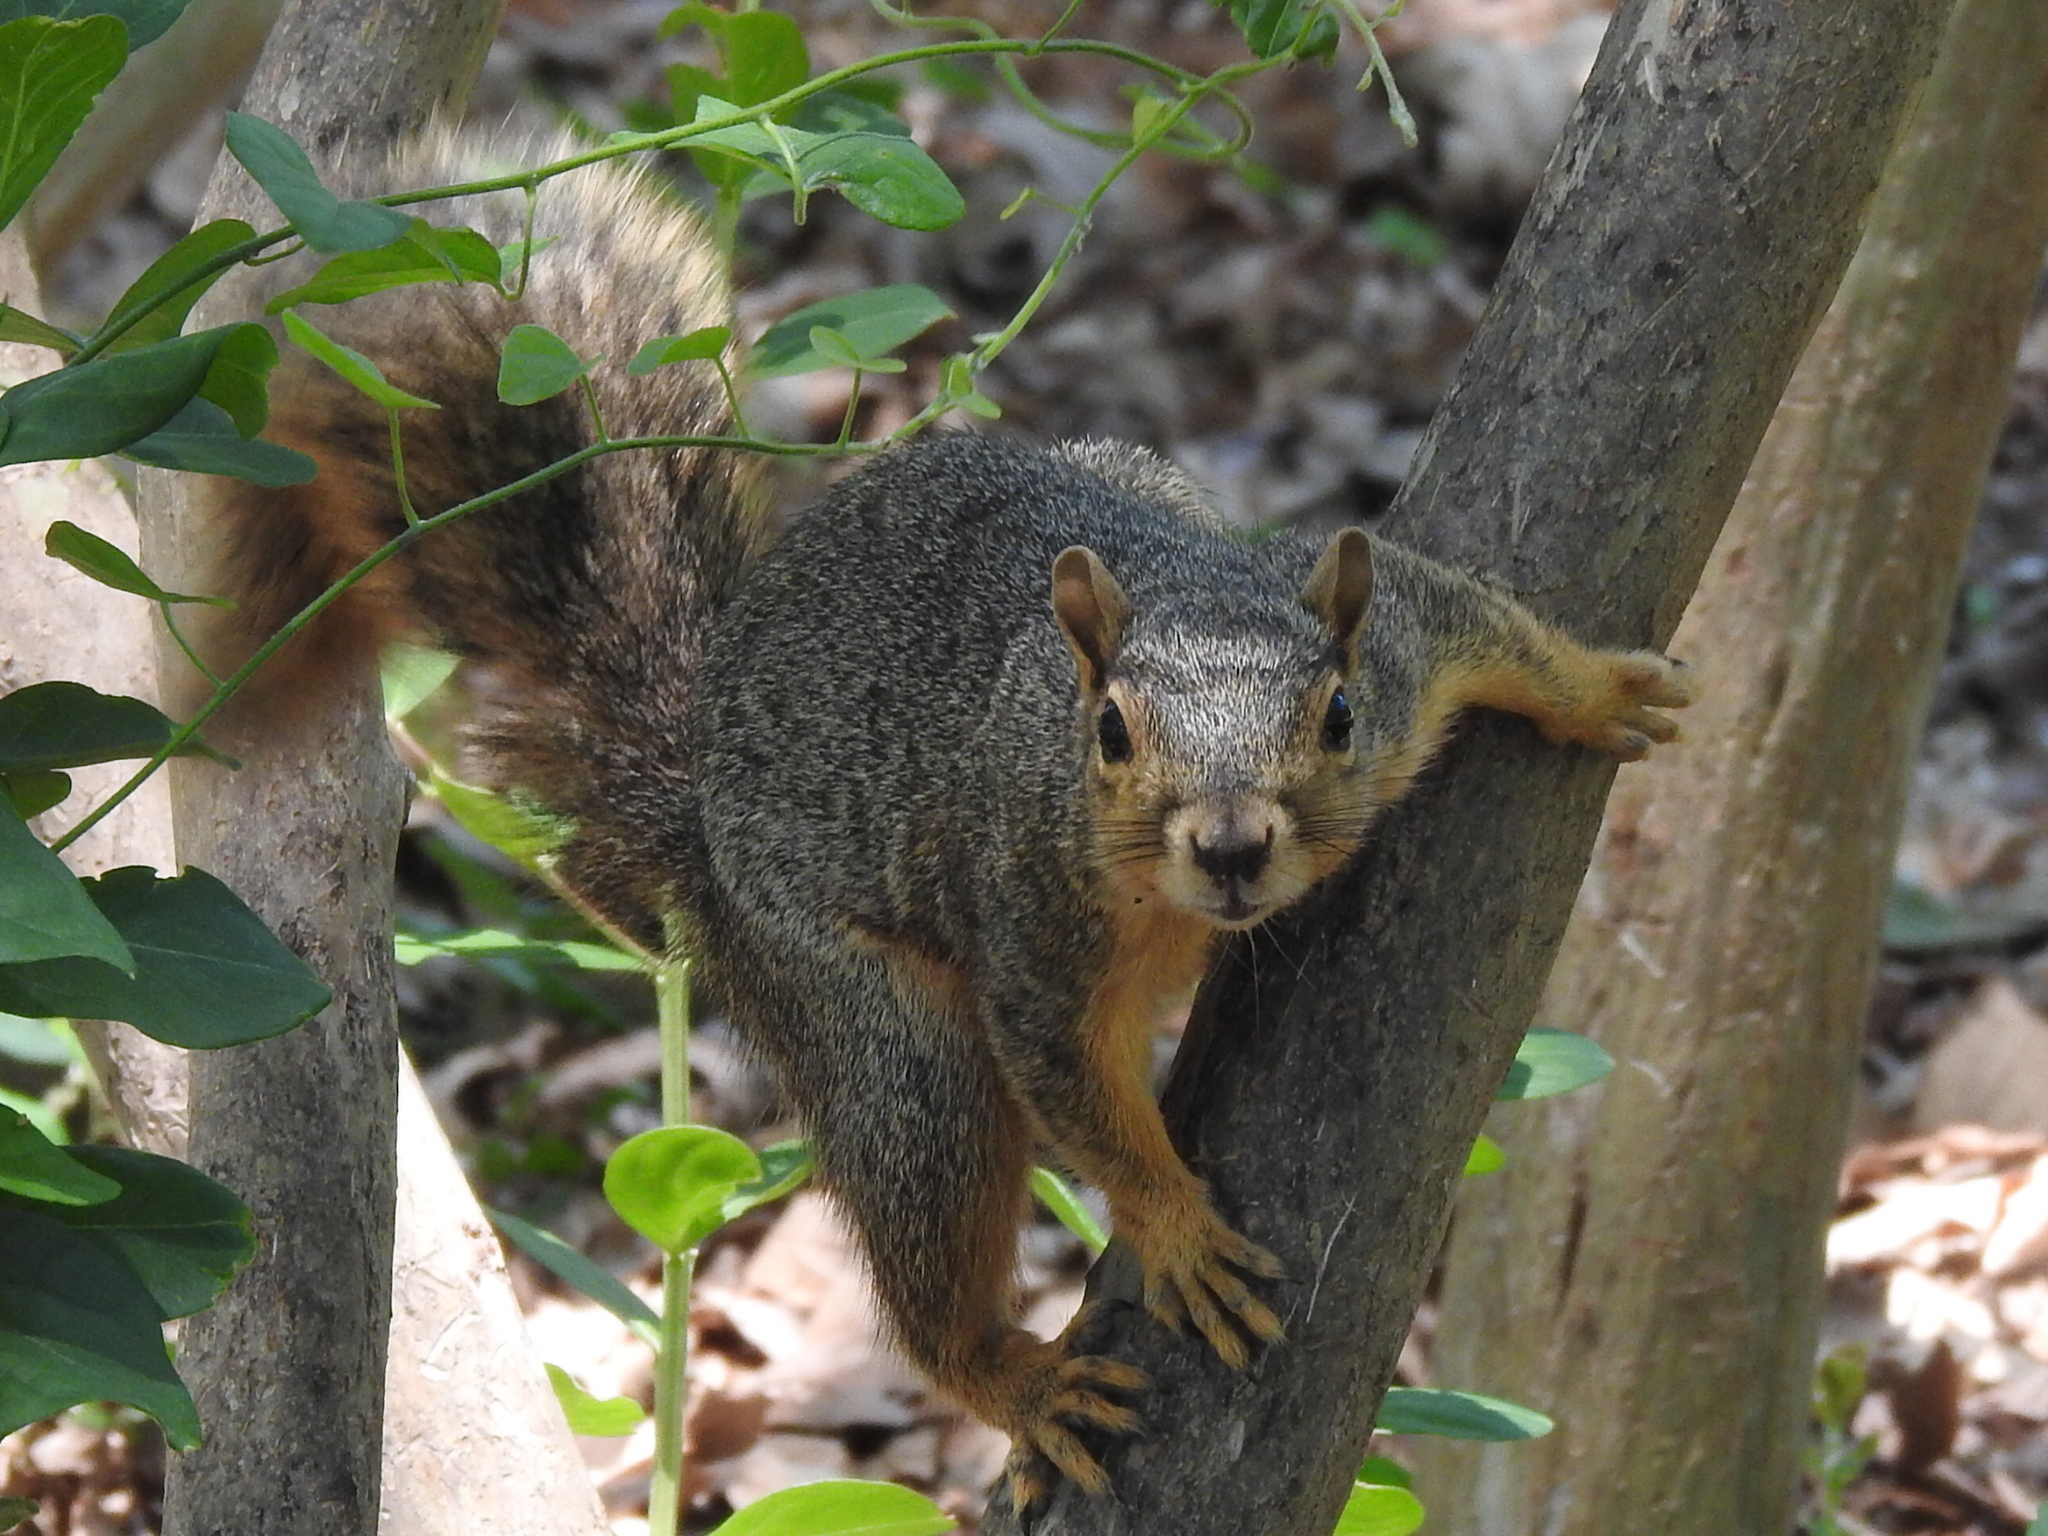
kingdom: Animalia
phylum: Chordata
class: Mammalia
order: Rodentia
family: Sciuridae
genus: Sciurus
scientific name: Sciurus niger
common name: Fox squirrel
